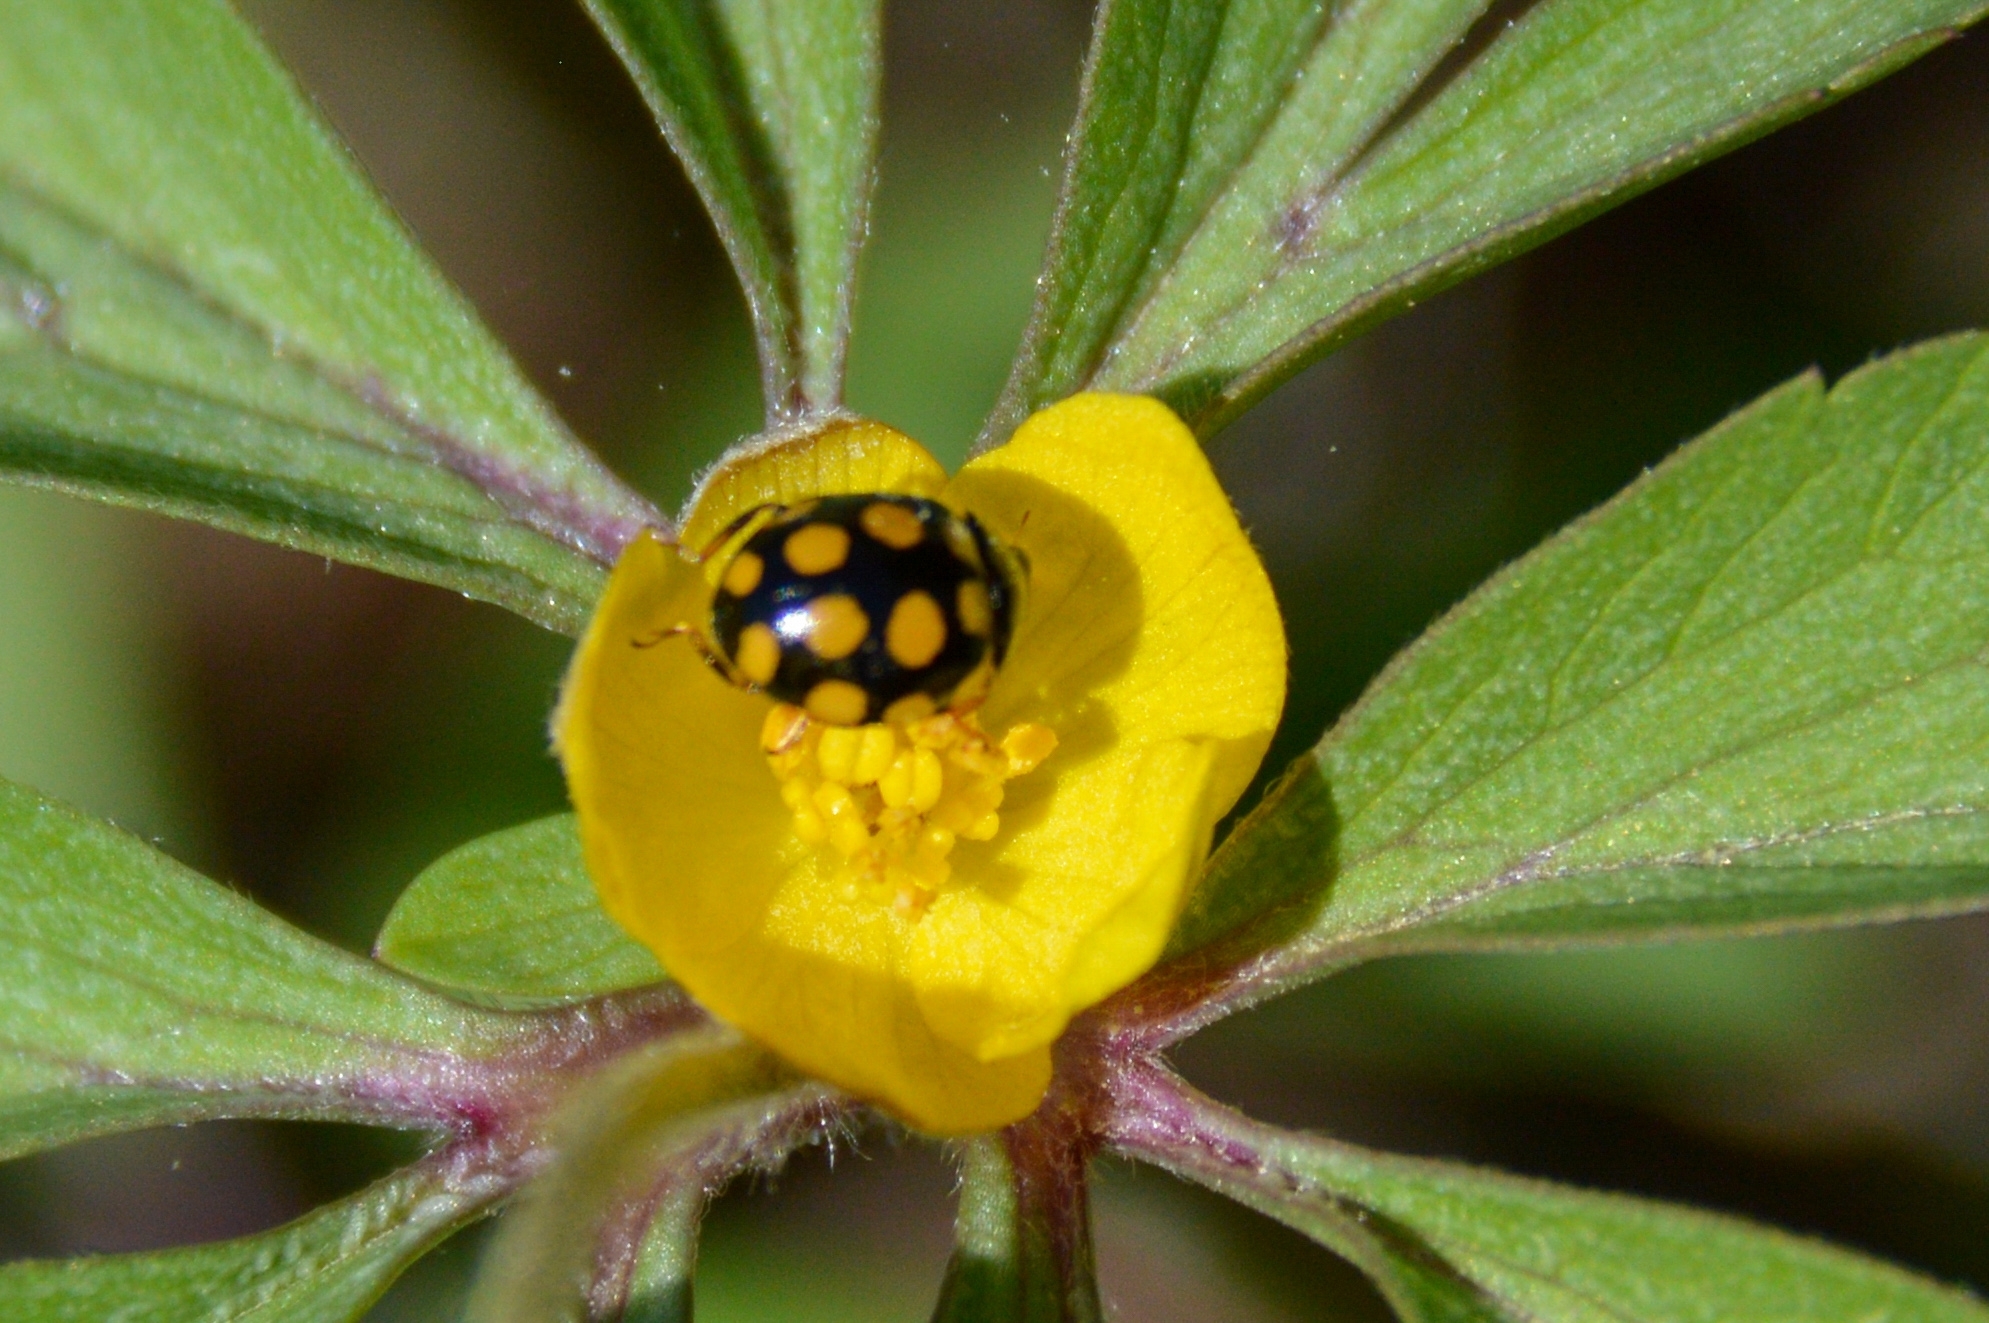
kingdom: Animalia
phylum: Arthropoda
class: Insecta
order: Coleoptera
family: Coccinellidae
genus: Coccinula
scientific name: Coccinula quatuordecimpustulata
